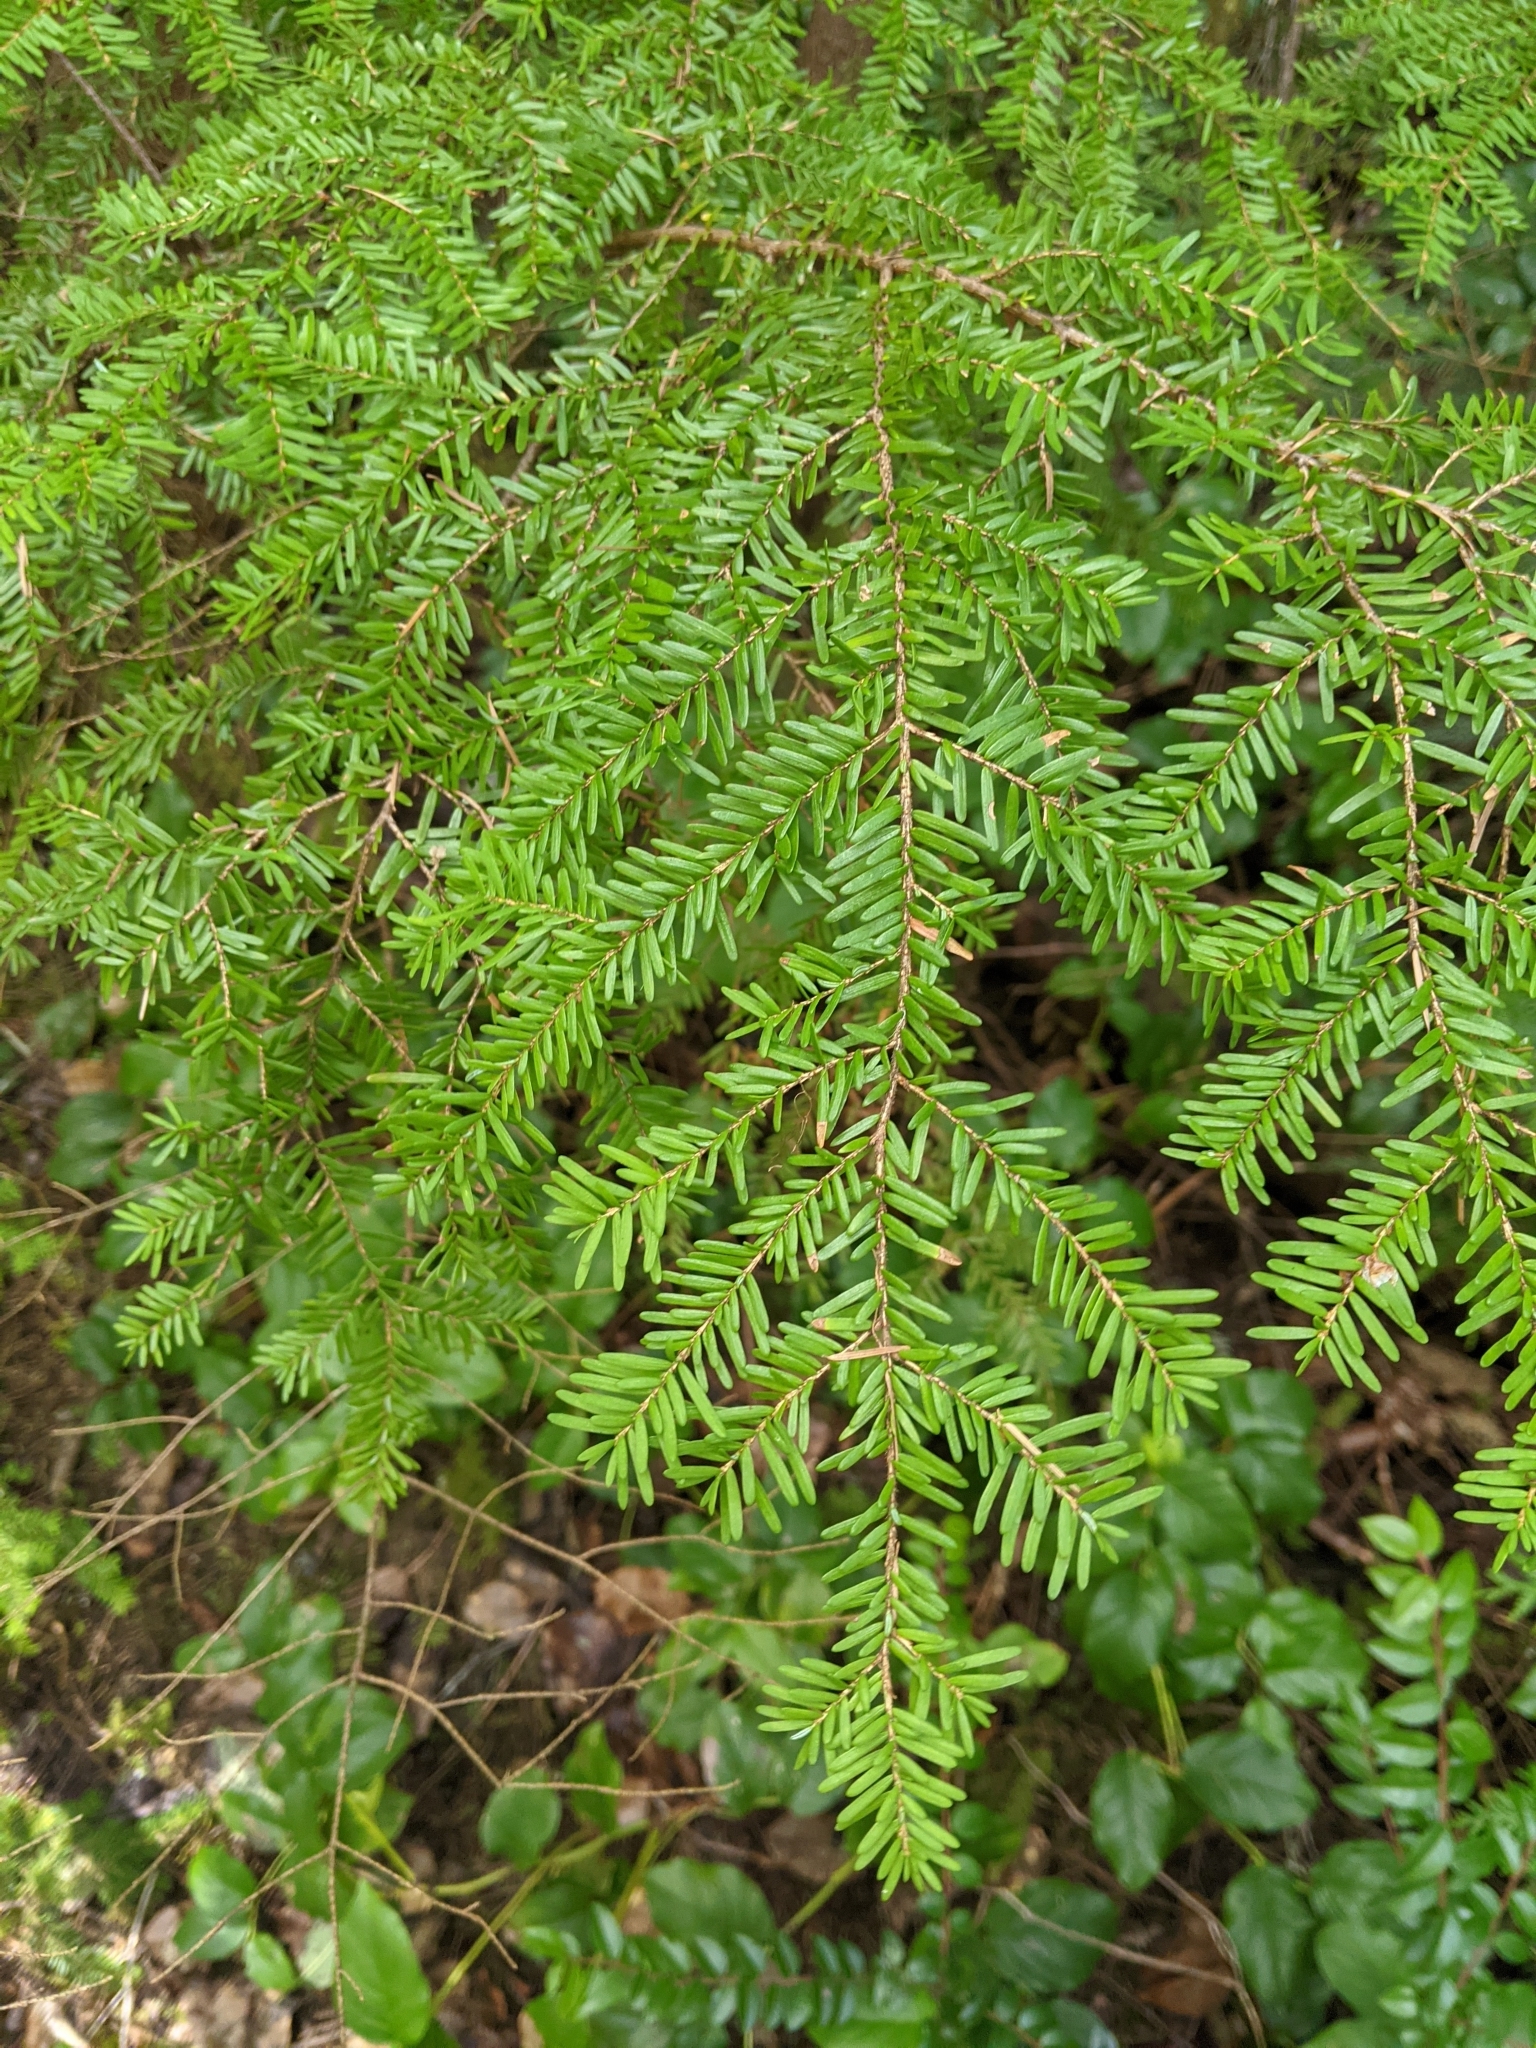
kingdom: Plantae
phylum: Tracheophyta
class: Pinopsida
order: Pinales
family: Pinaceae
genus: Tsuga
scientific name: Tsuga heterophylla
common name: Western hemlock
